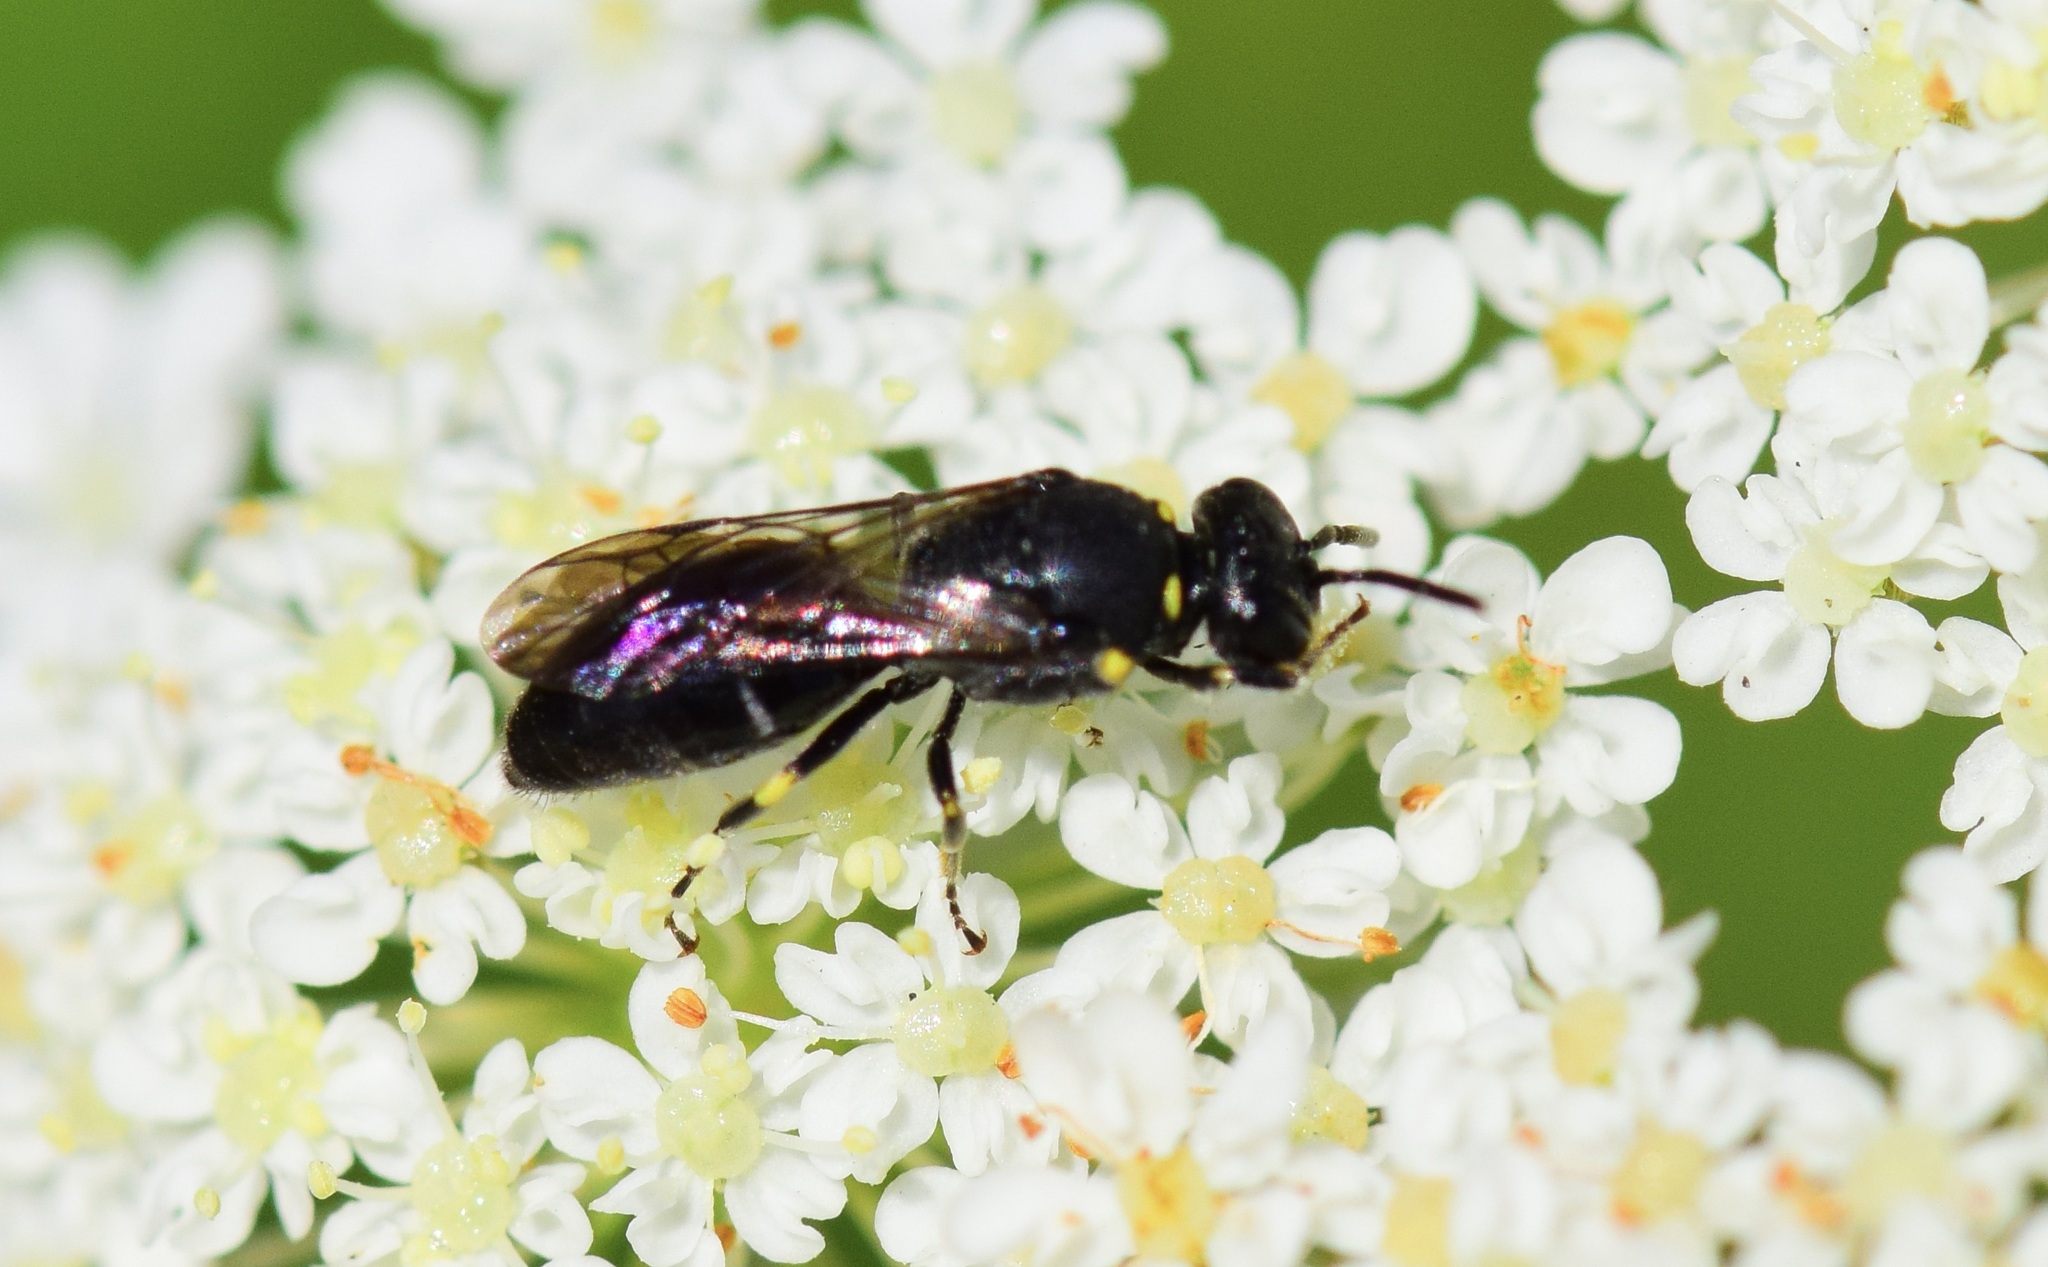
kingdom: Animalia
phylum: Arthropoda
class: Insecta
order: Hymenoptera
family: Colletidae
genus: Hylaeus
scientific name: Hylaeus modestus
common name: Yellow-faced bee
